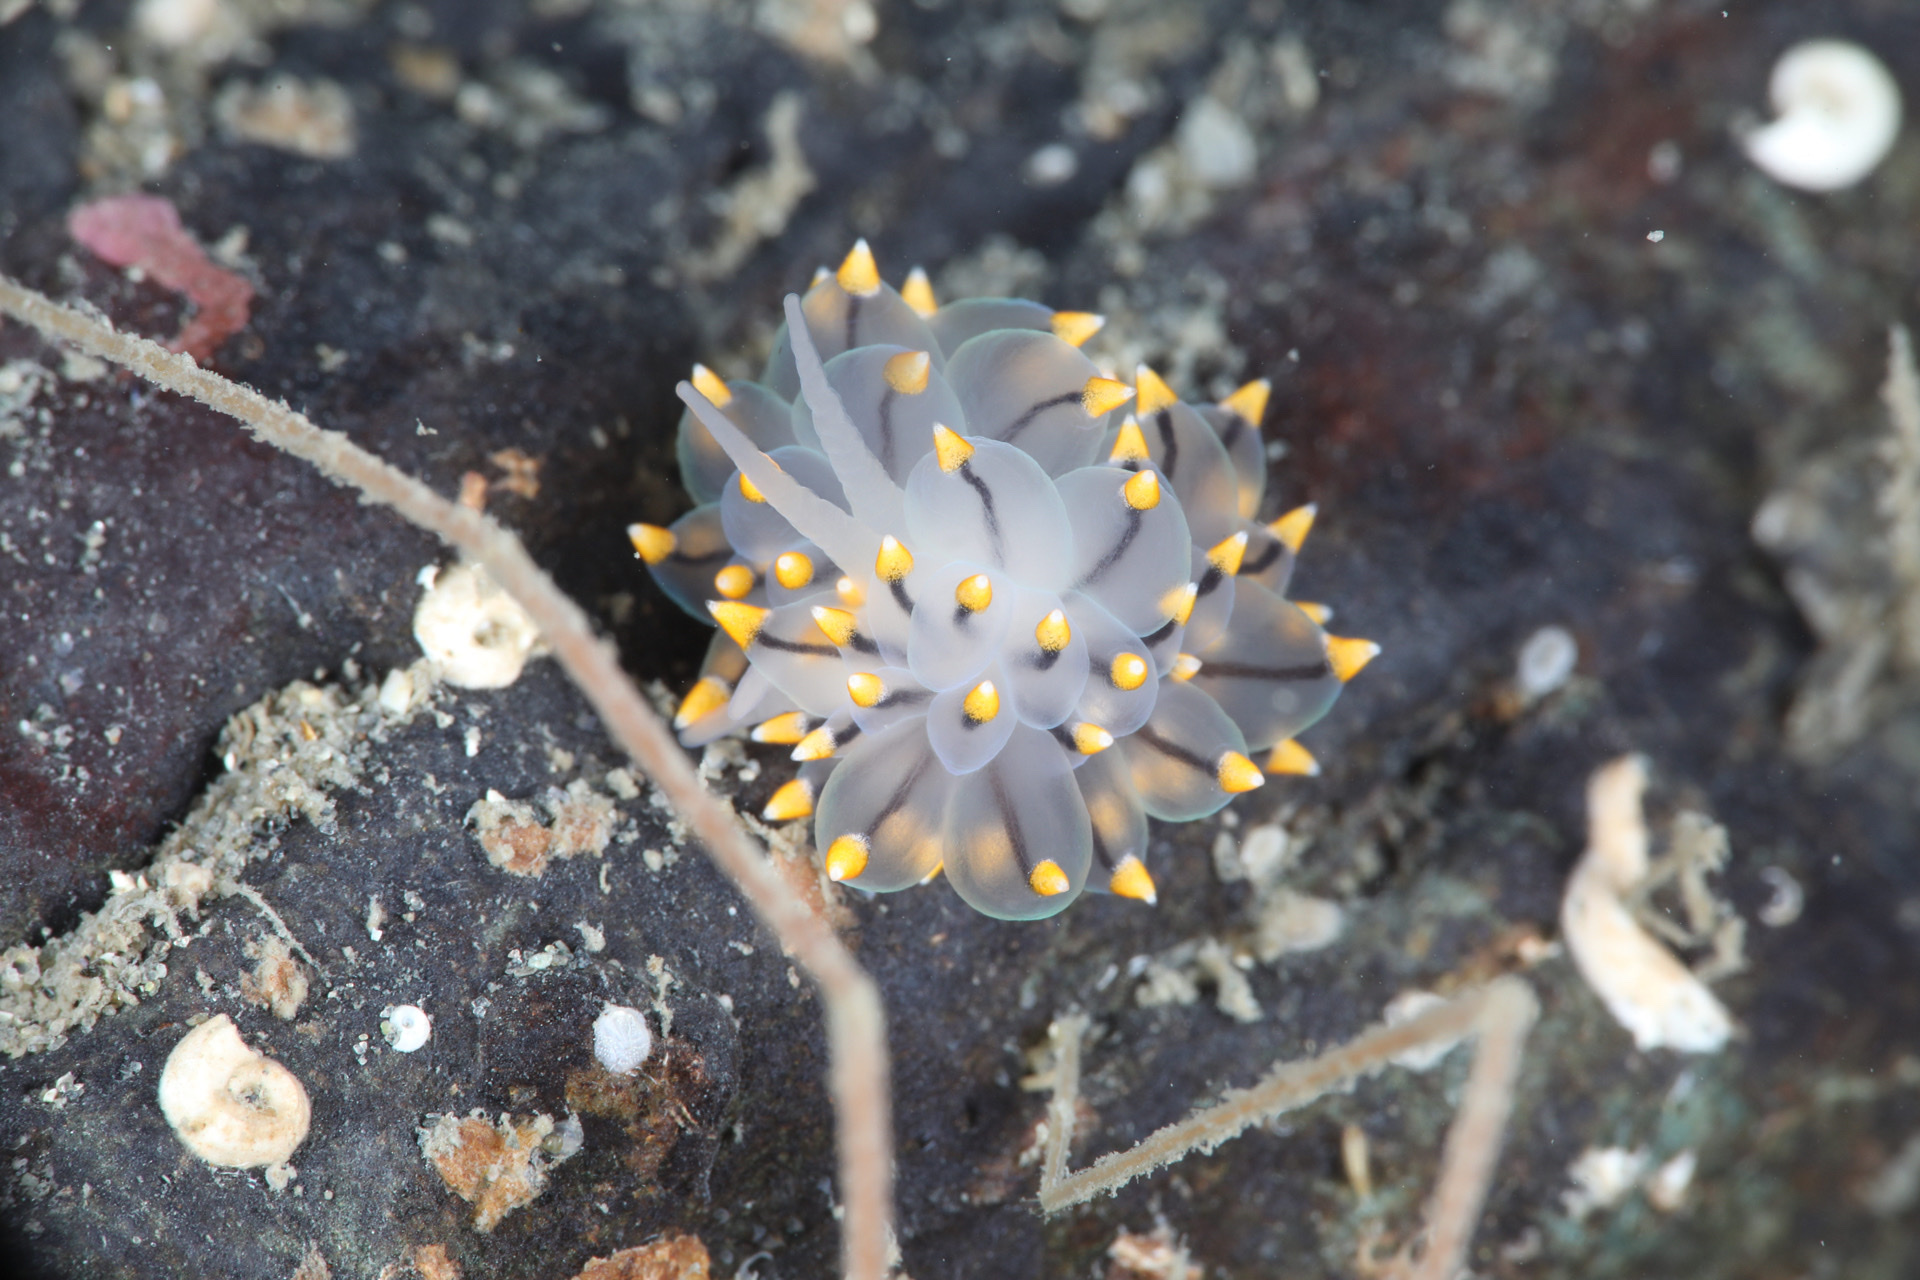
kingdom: Animalia
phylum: Mollusca
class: Gastropoda
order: Nudibranchia
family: Eubranchidae
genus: Eubranchus
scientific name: Eubranchus tricolor
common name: Painted balloon aeolis
